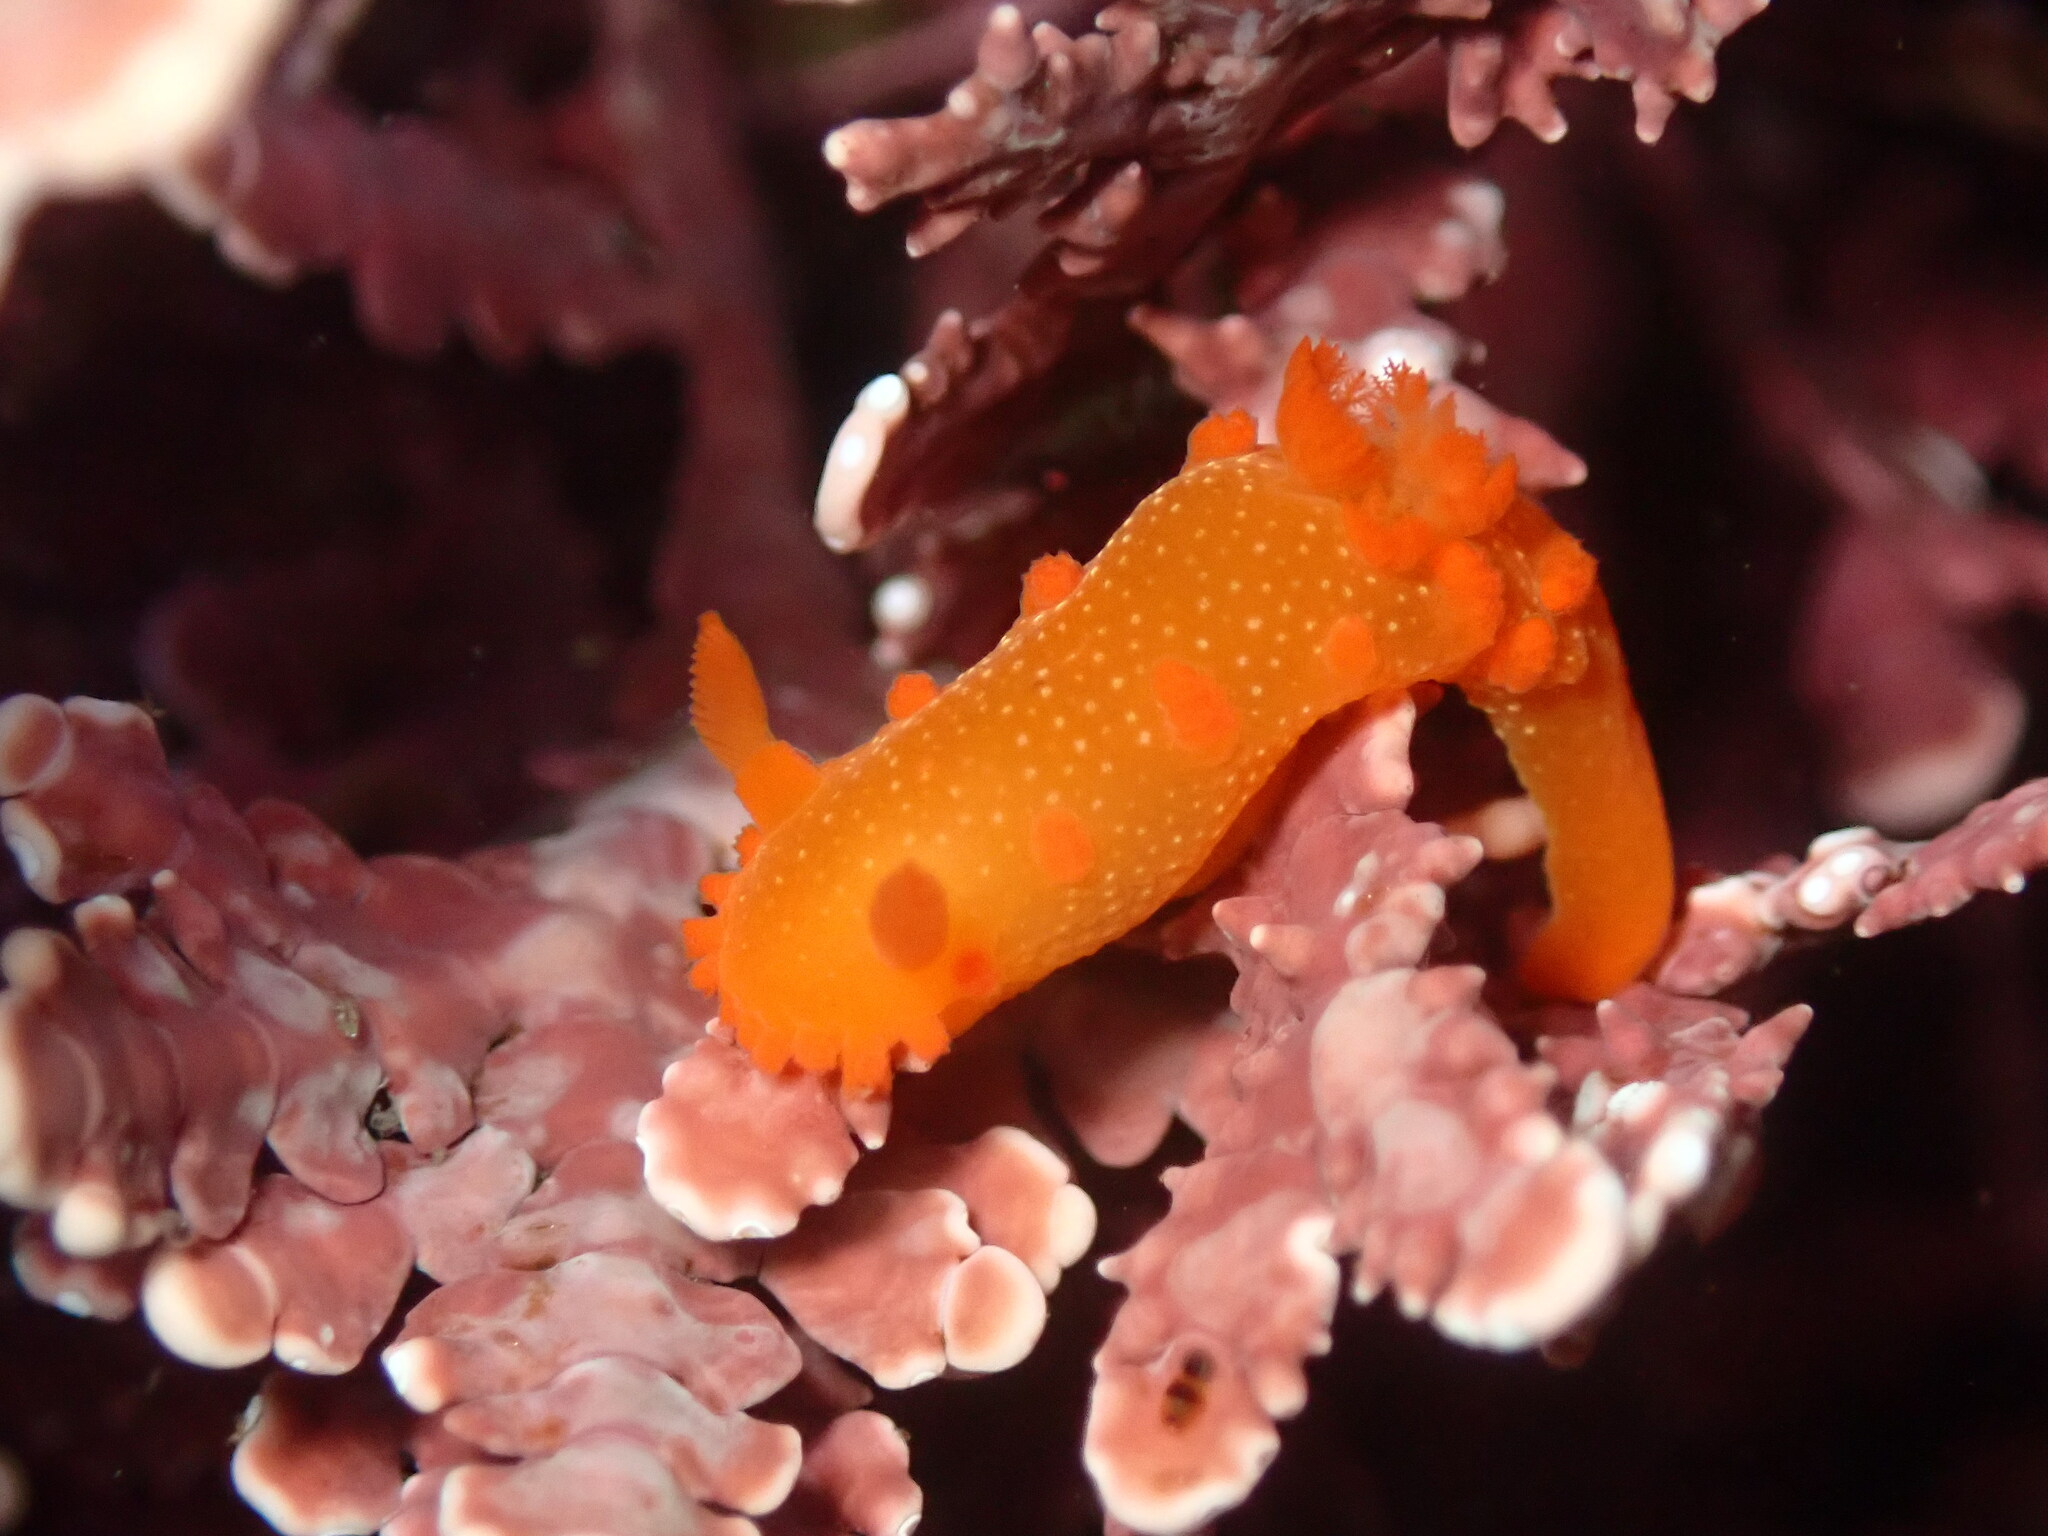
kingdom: Animalia
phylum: Mollusca
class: Gastropoda
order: Nudibranchia
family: Polyceridae
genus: Triopha
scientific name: Triopha maculata
